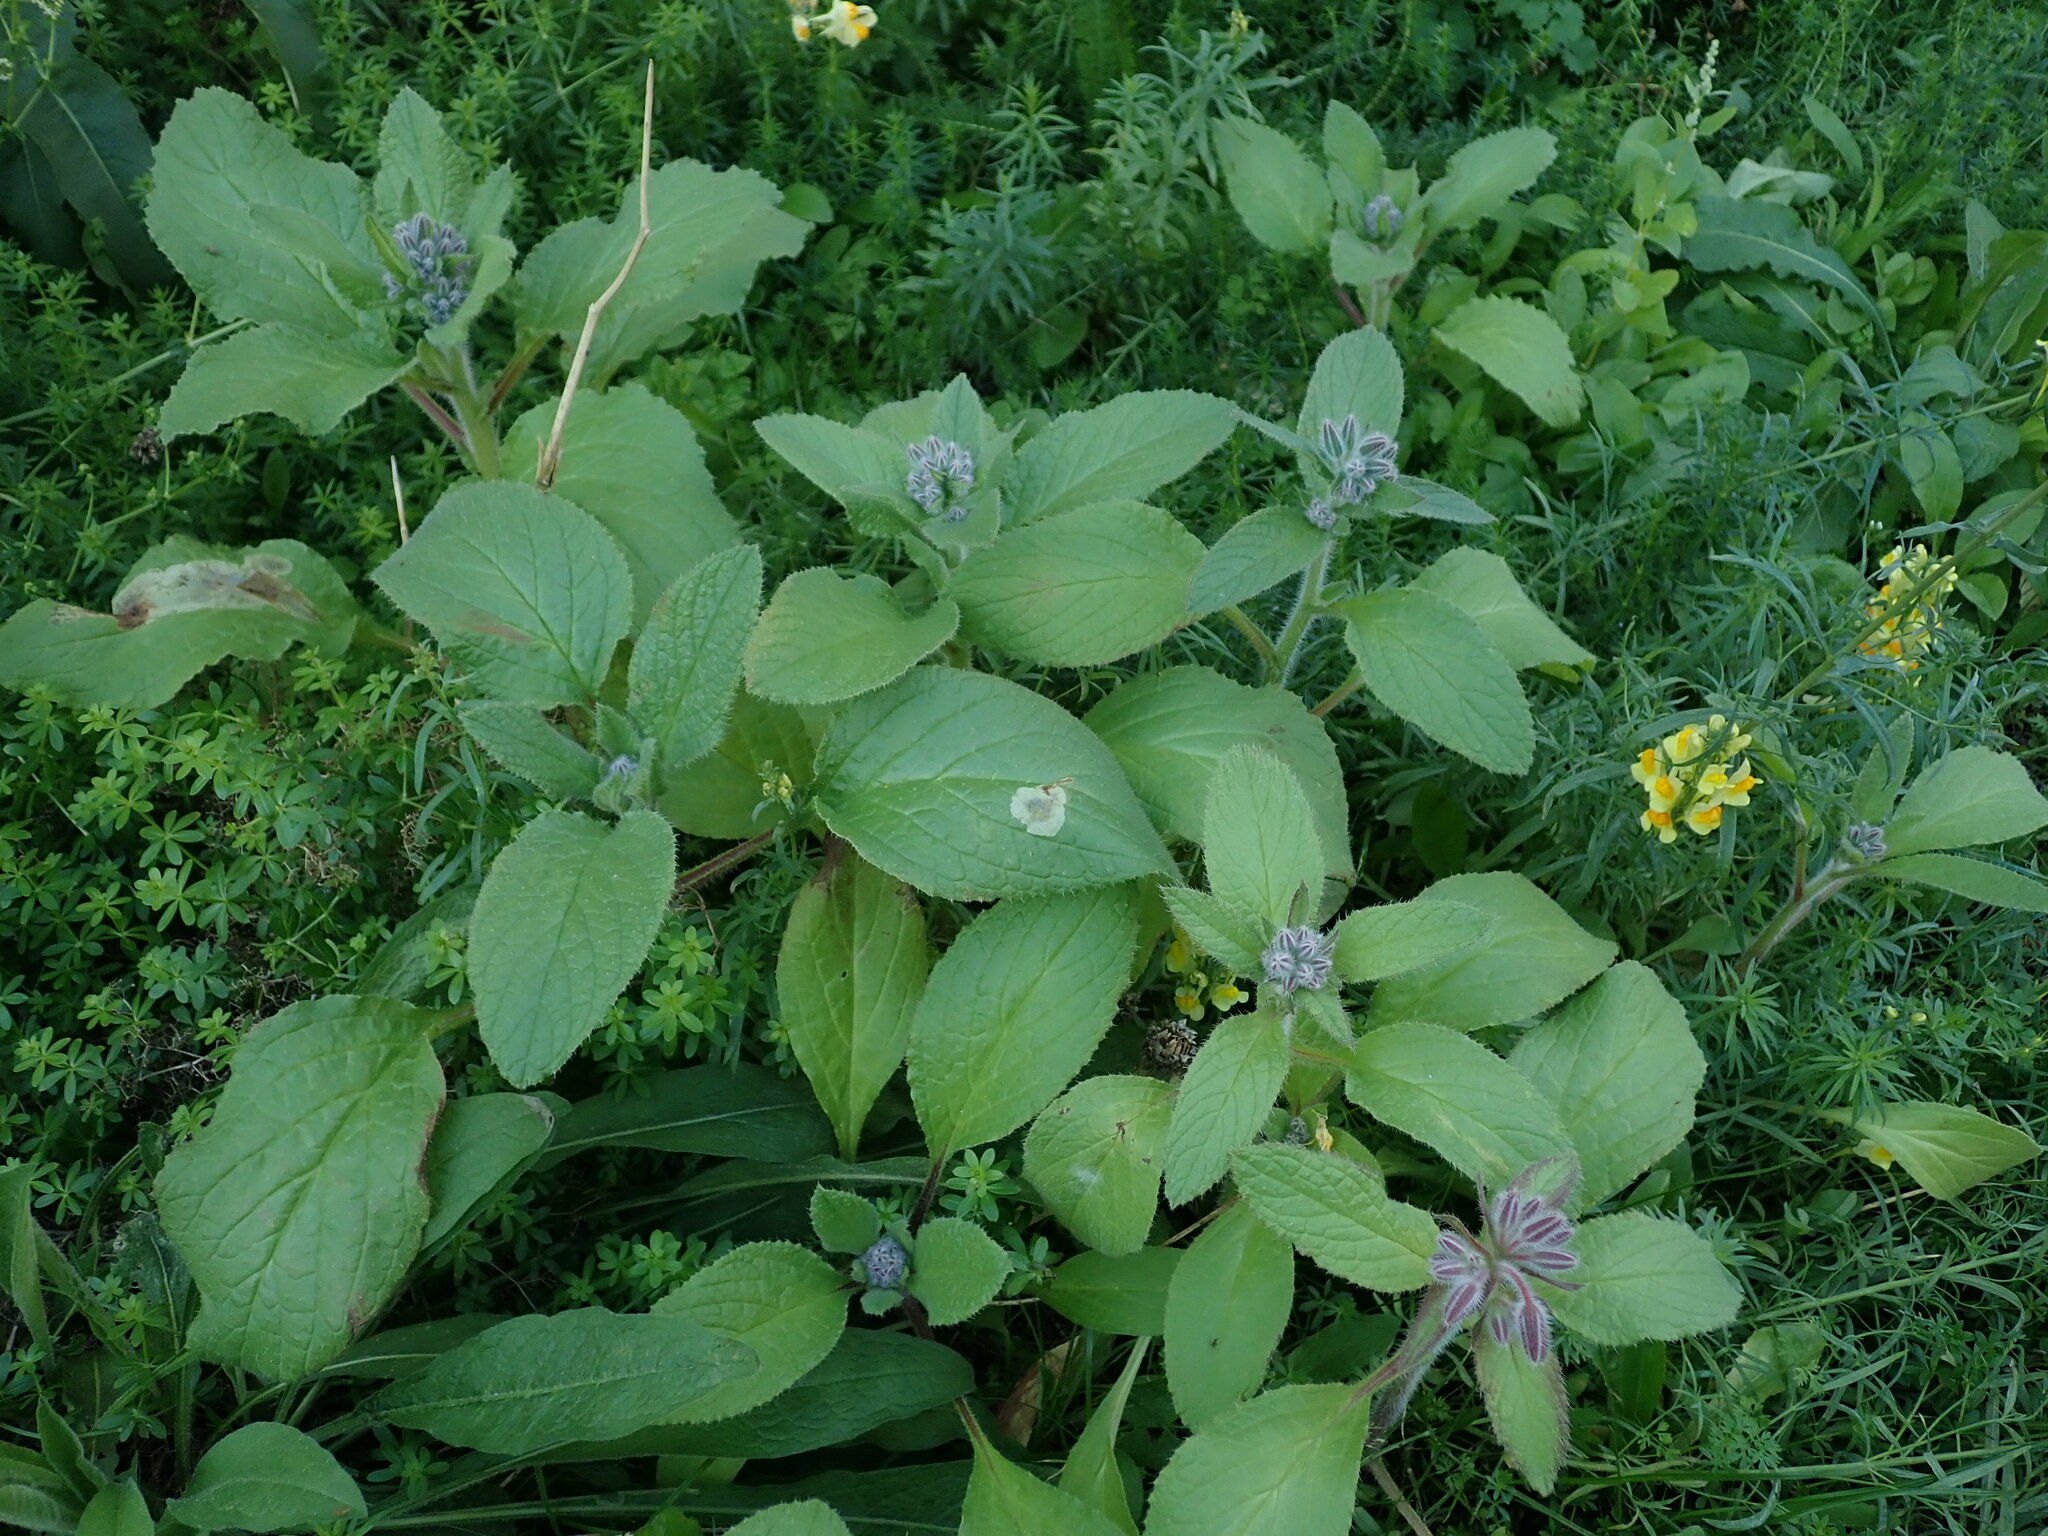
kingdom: Plantae
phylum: Tracheophyta
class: Magnoliopsida
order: Boraginales
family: Boraginaceae
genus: Borago
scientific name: Borago officinalis
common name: Borage
